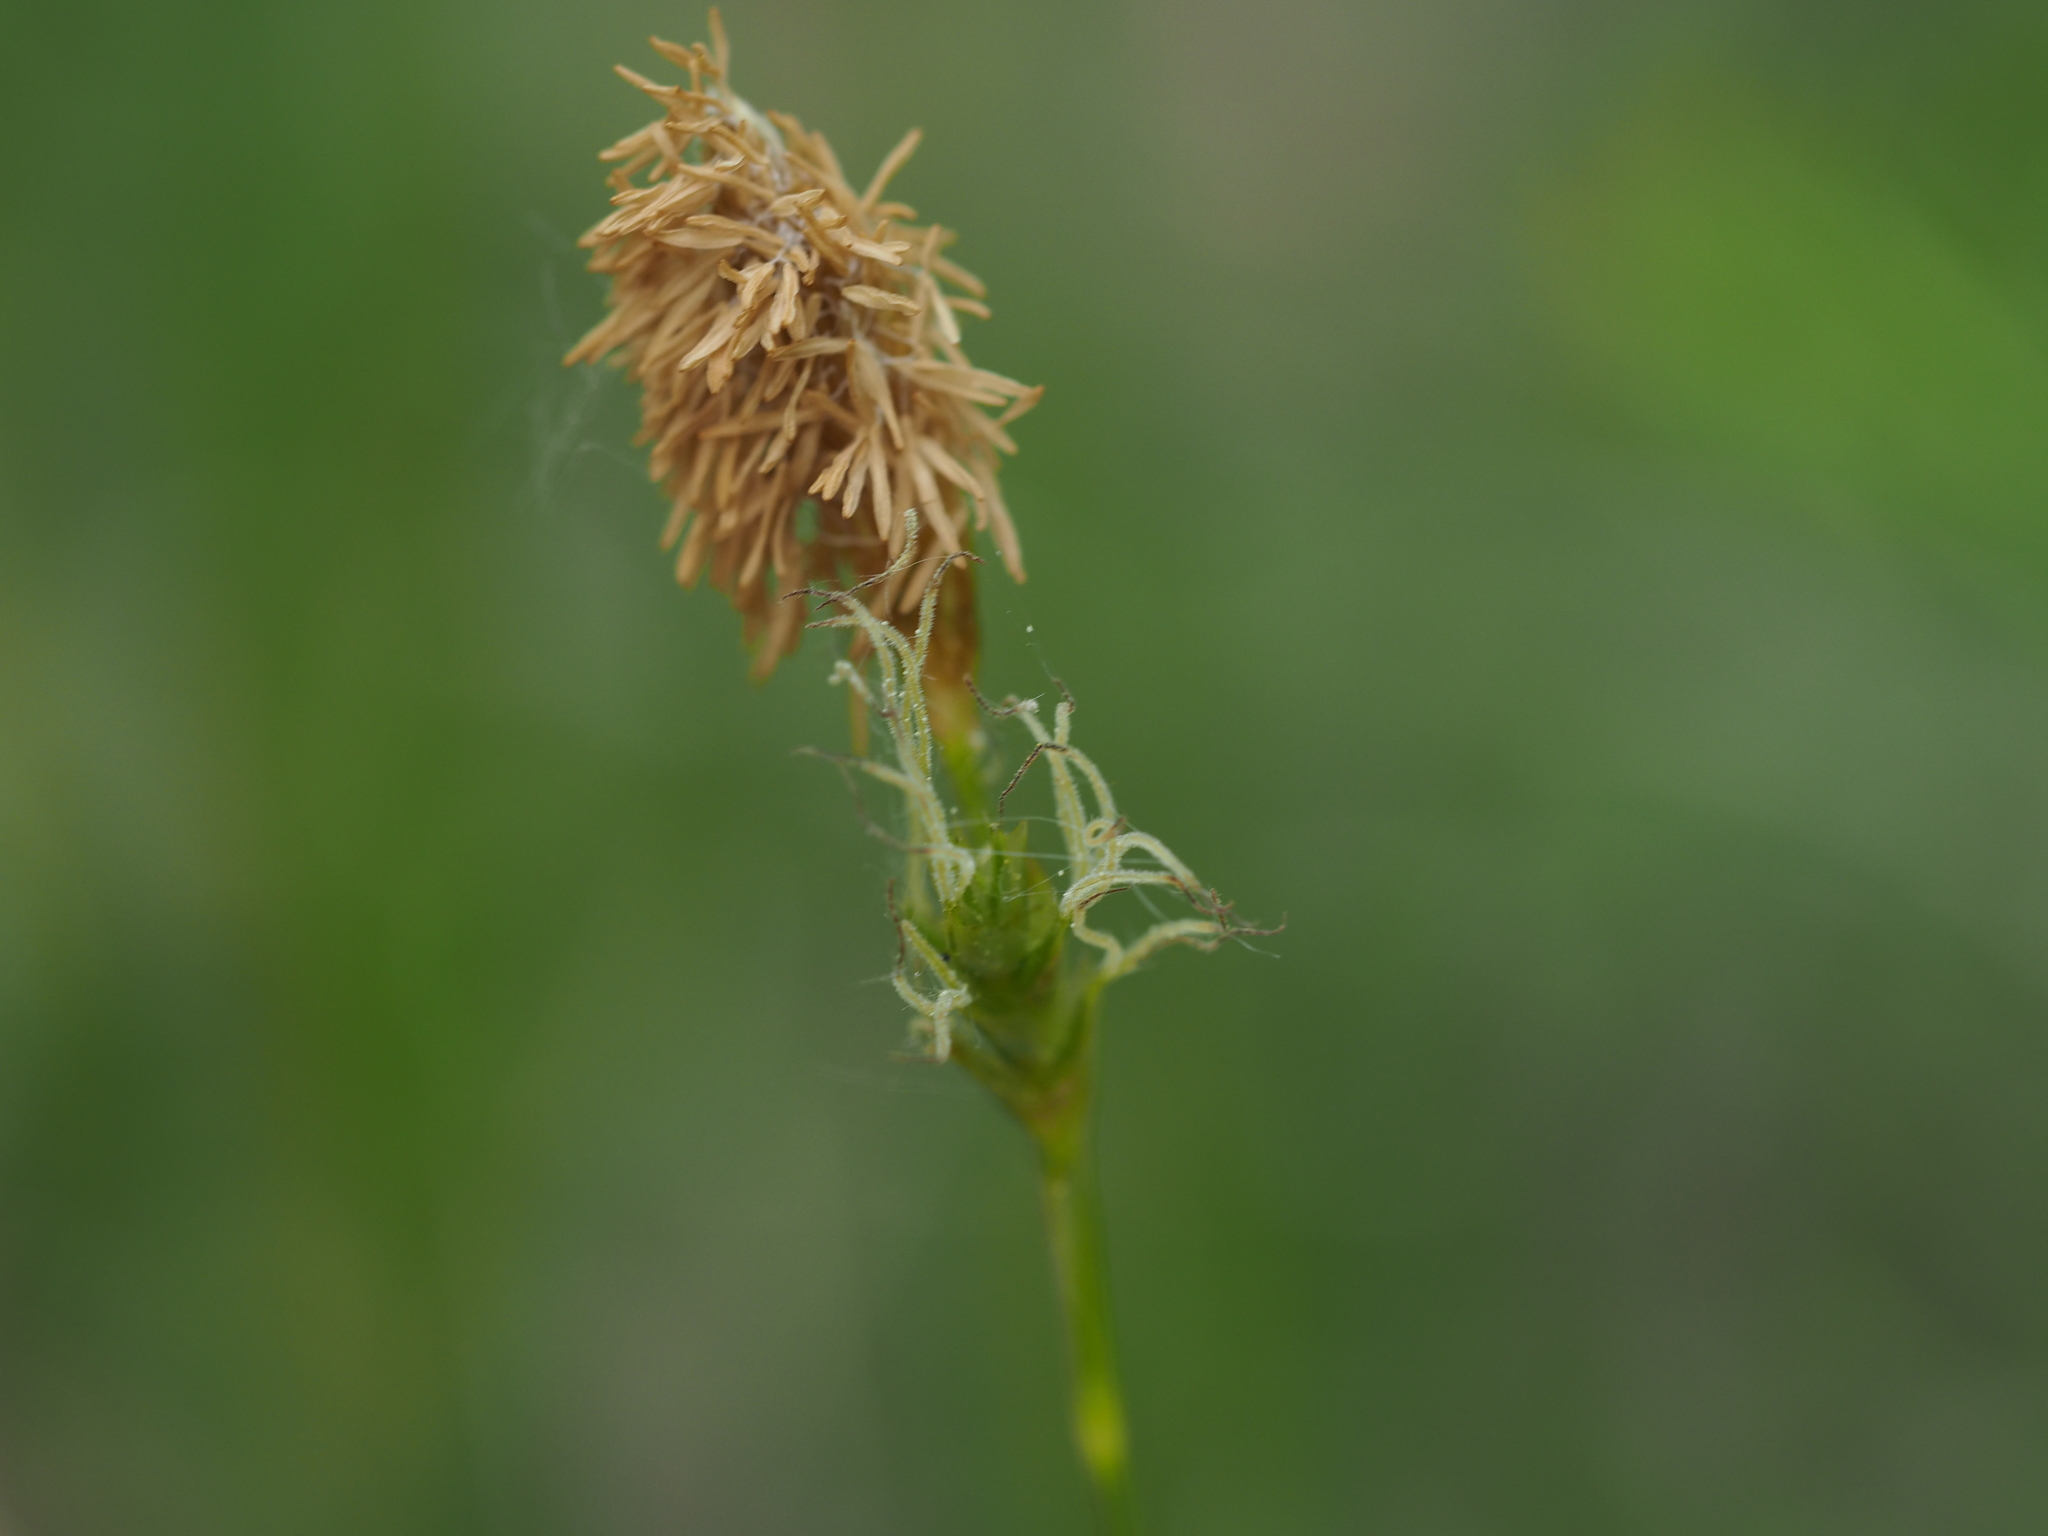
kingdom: Plantae
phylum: Tracheophyta
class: Liliopsida
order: Poales
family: Cyperaceae
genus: Carex
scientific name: Carex michelii
